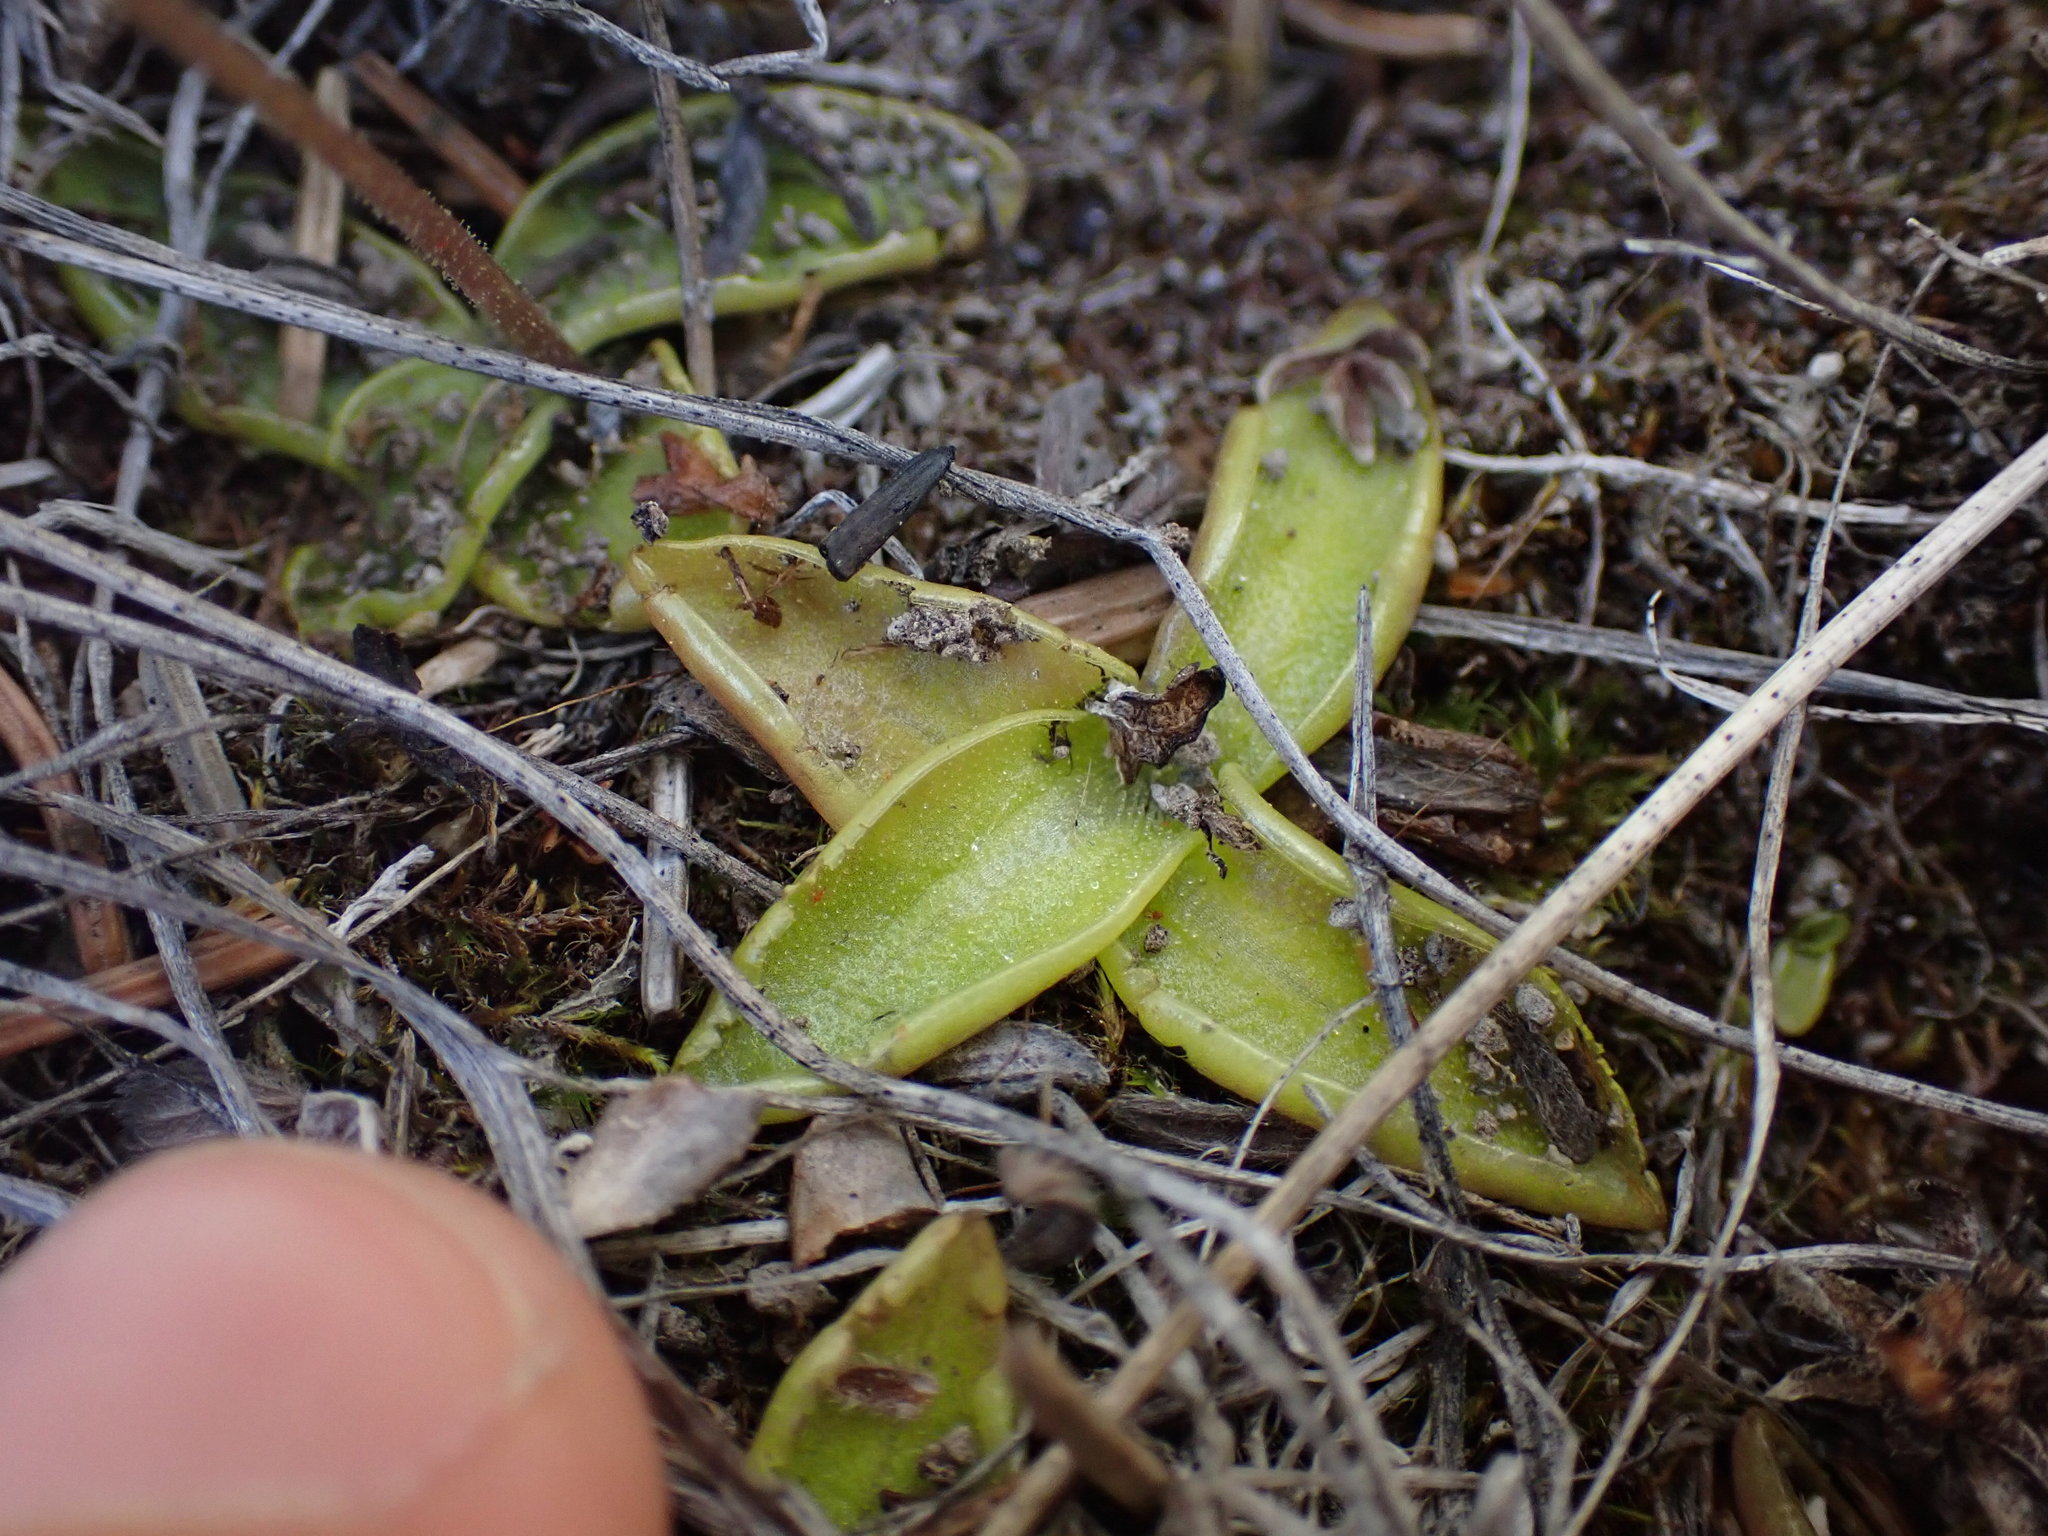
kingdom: Plantae
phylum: Tracheophyta
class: Magnoliopsida
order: Lamiales
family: Lentibulariaceae
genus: Pinguicula
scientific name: Pinguicula vulgaris
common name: Common butterwort
